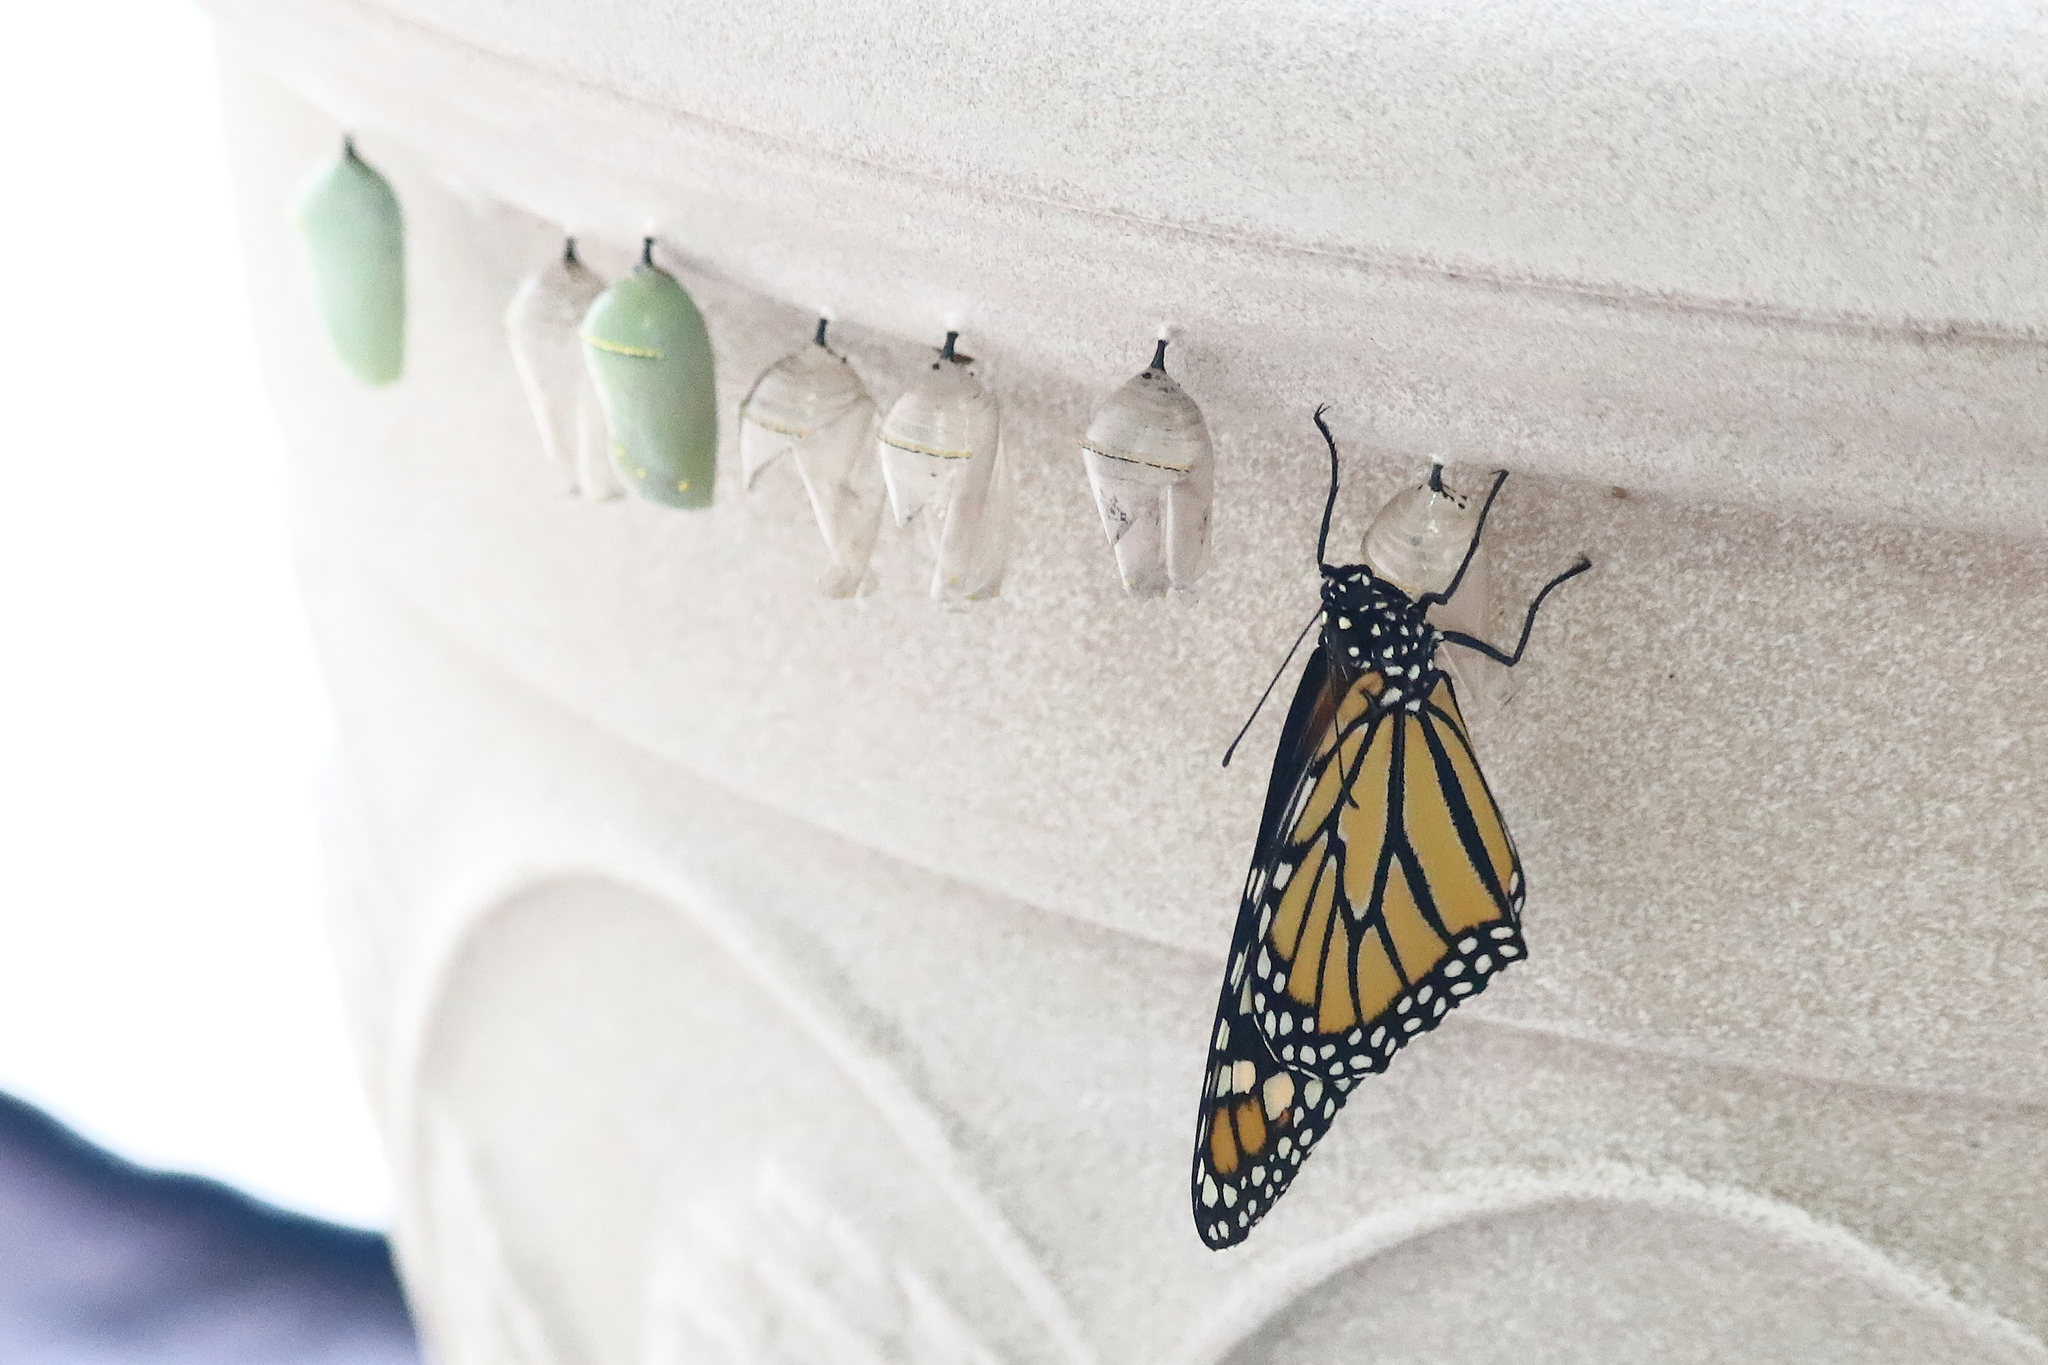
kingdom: Animalia
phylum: Arthropoda
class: Insecta
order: Lepidoptera
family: Nymphalidae
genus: Danaus
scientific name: Danaus plexippus
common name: Monarch
